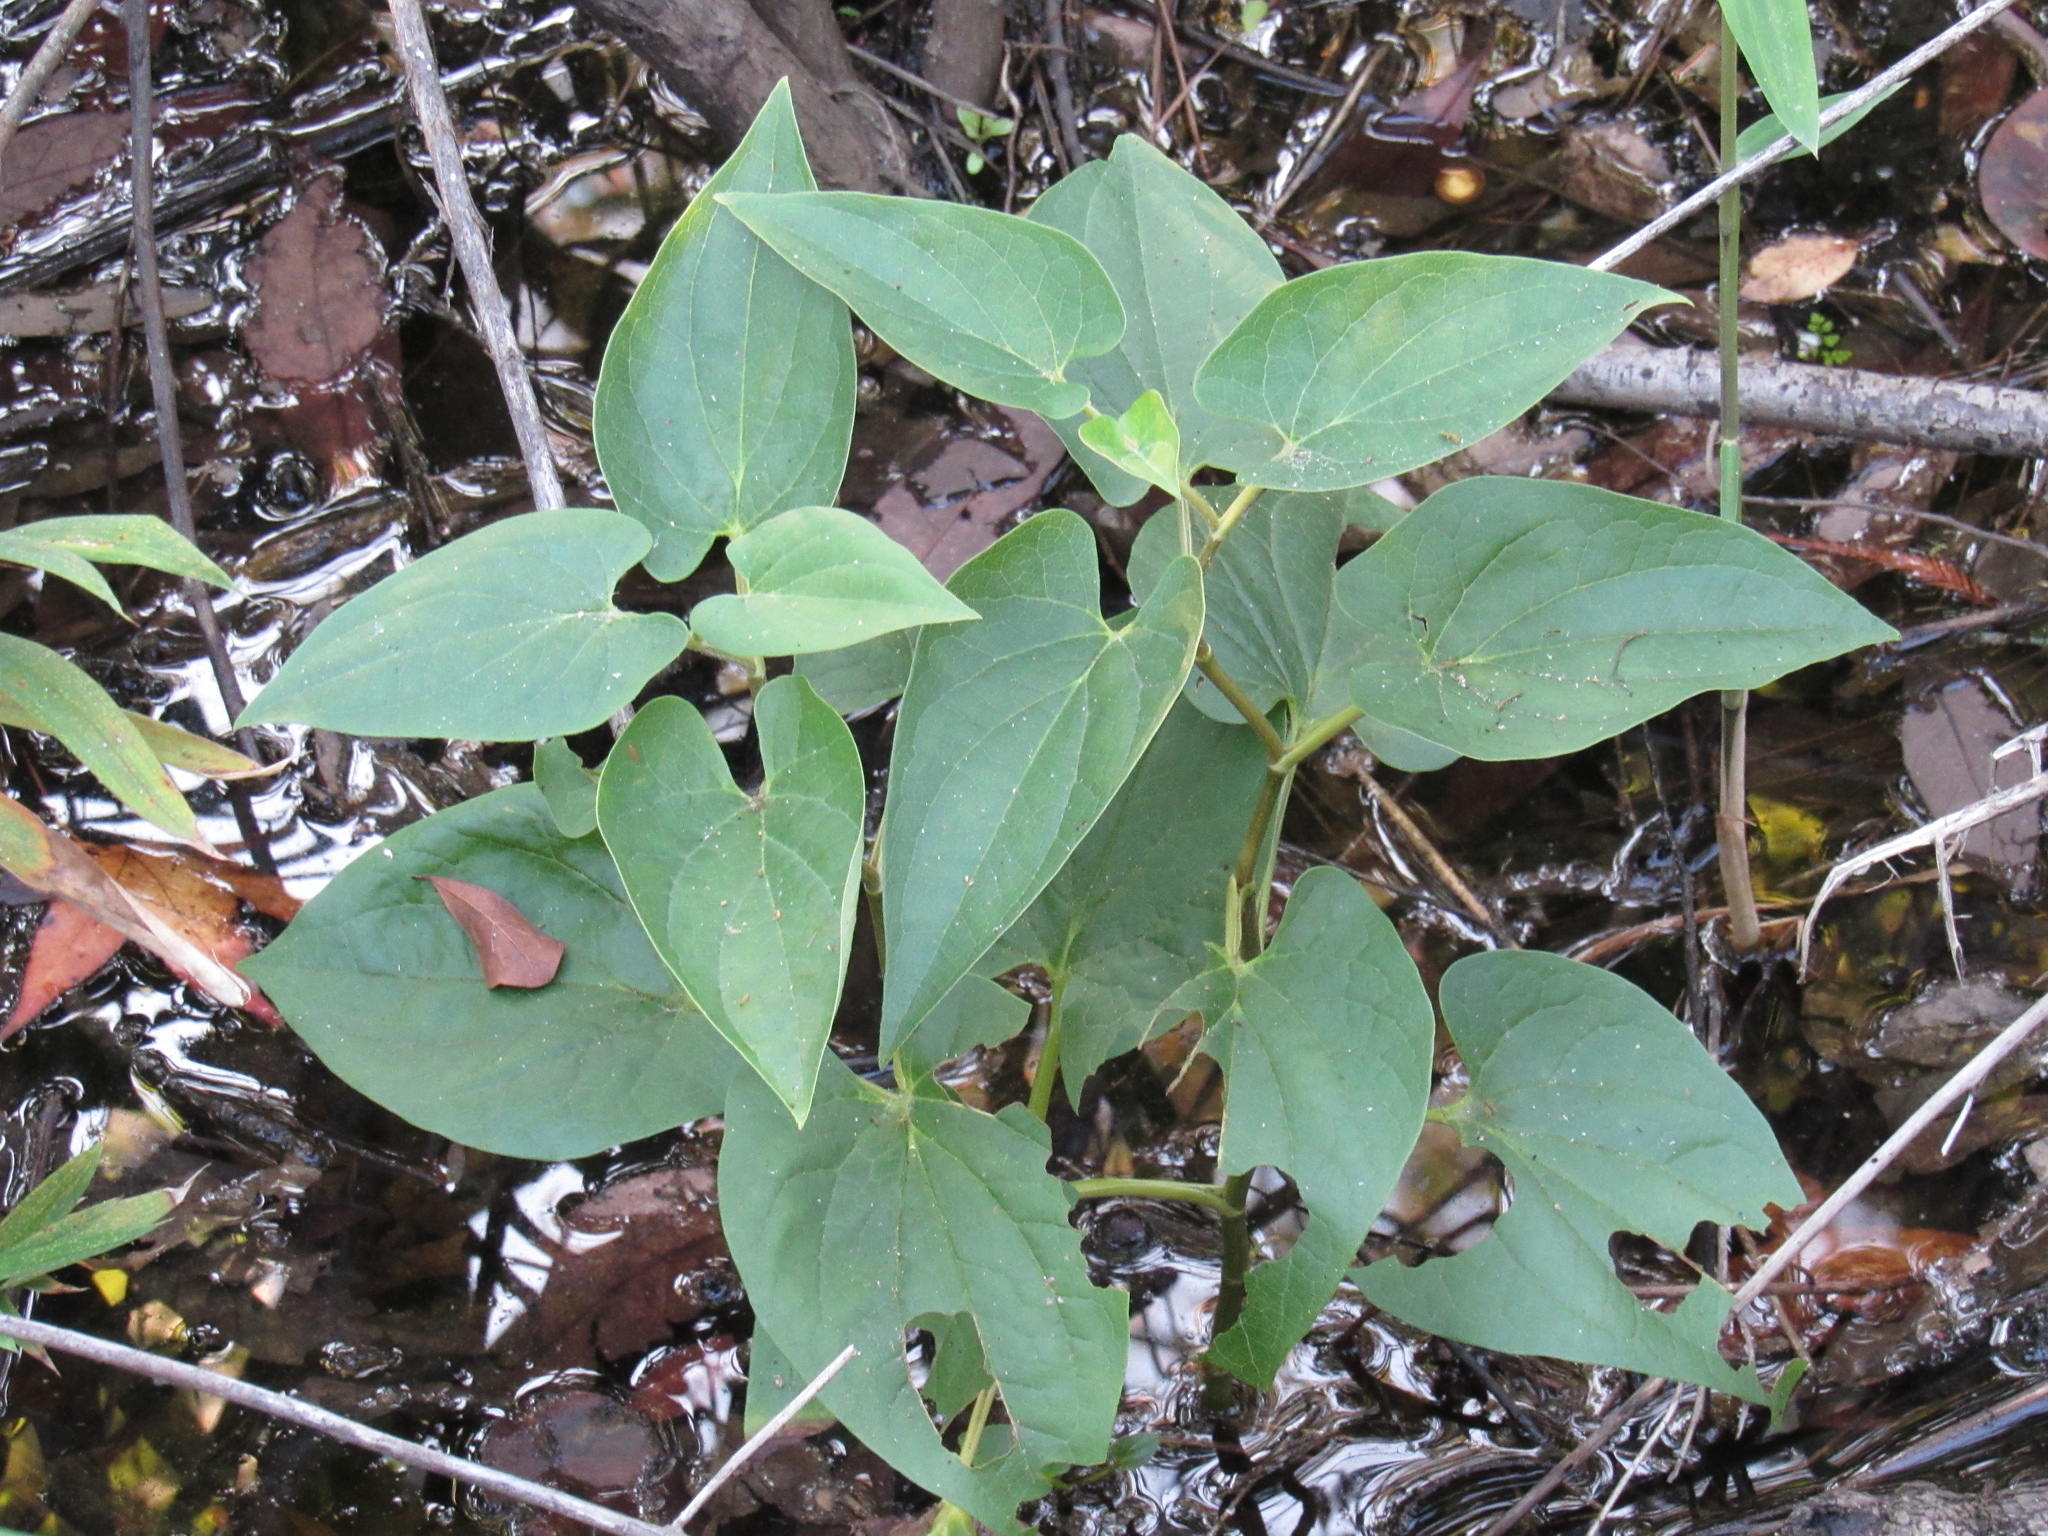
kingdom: Plantae
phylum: Tracheophyta
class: Magnoliopsida
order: Piperales
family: Saururaceae
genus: Saururus
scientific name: Saururus cernuus
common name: Lizard's-tail
